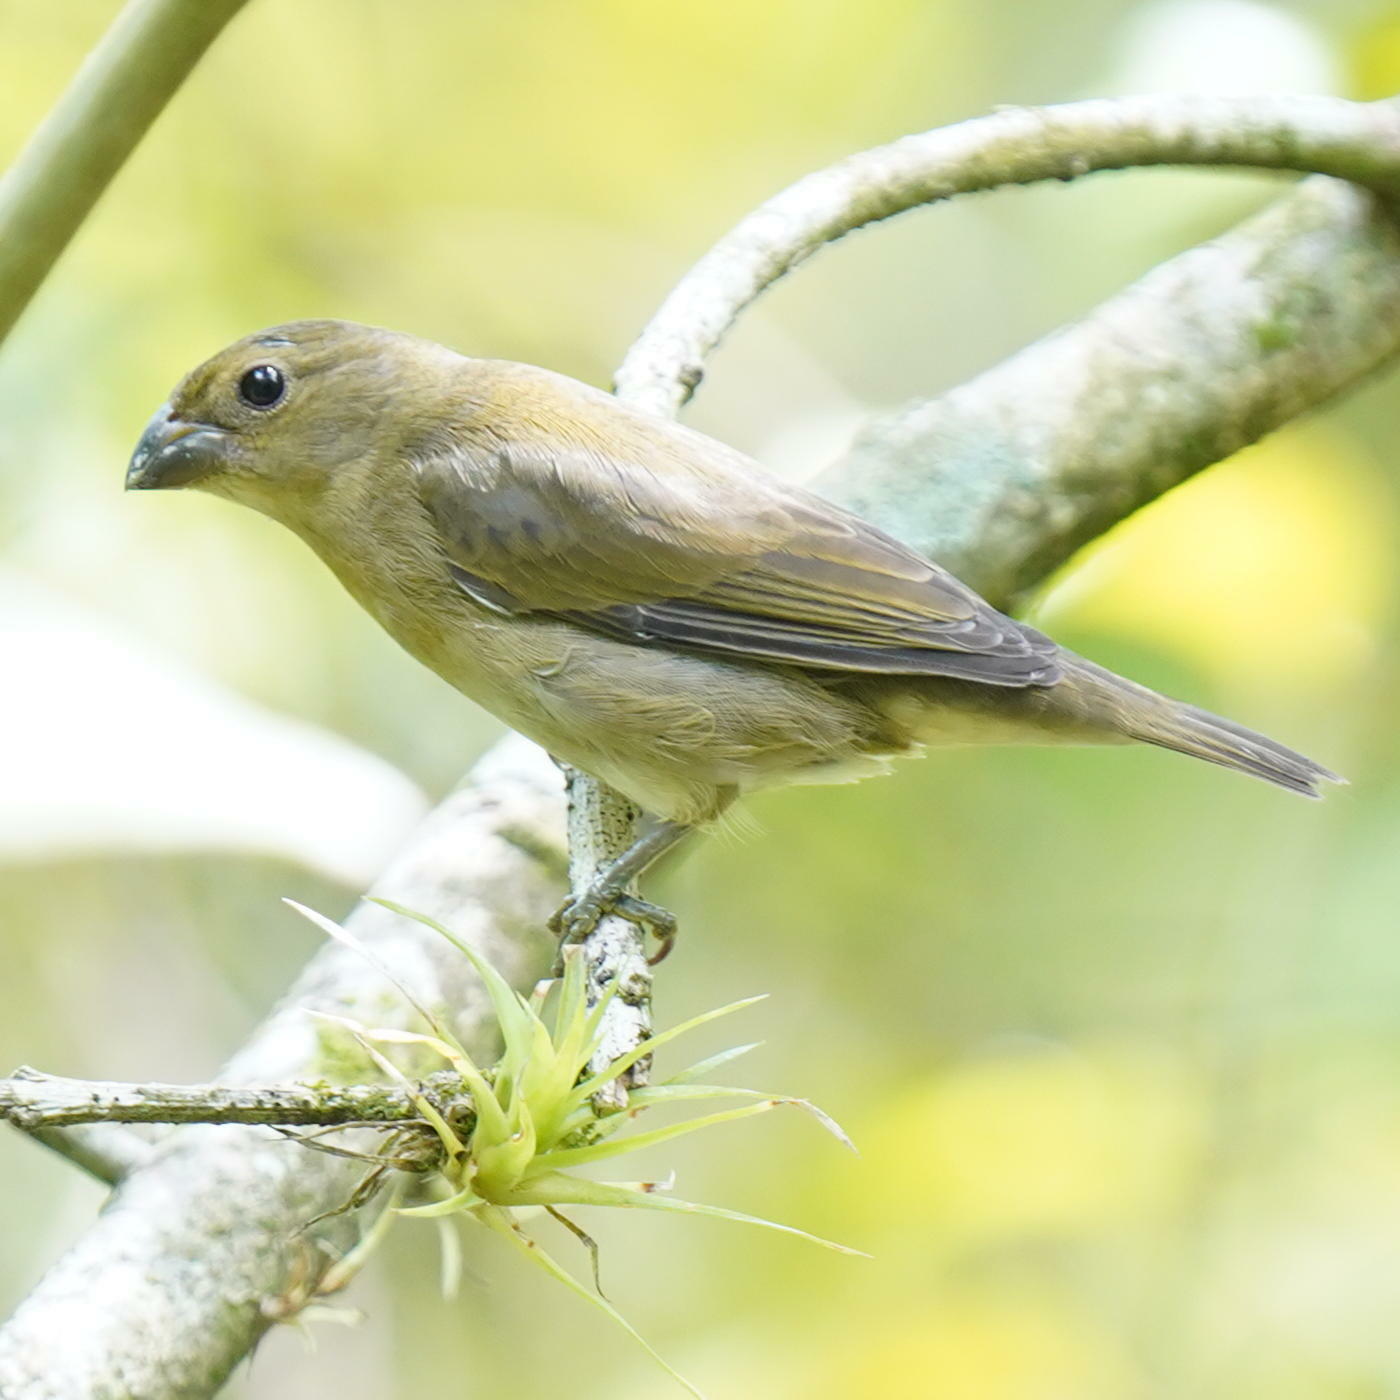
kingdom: Animalia
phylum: Chordata
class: Aves
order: Passeriformes
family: Thraupidae
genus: Sporophila
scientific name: Sporophila corvina
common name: Variable seedeater
